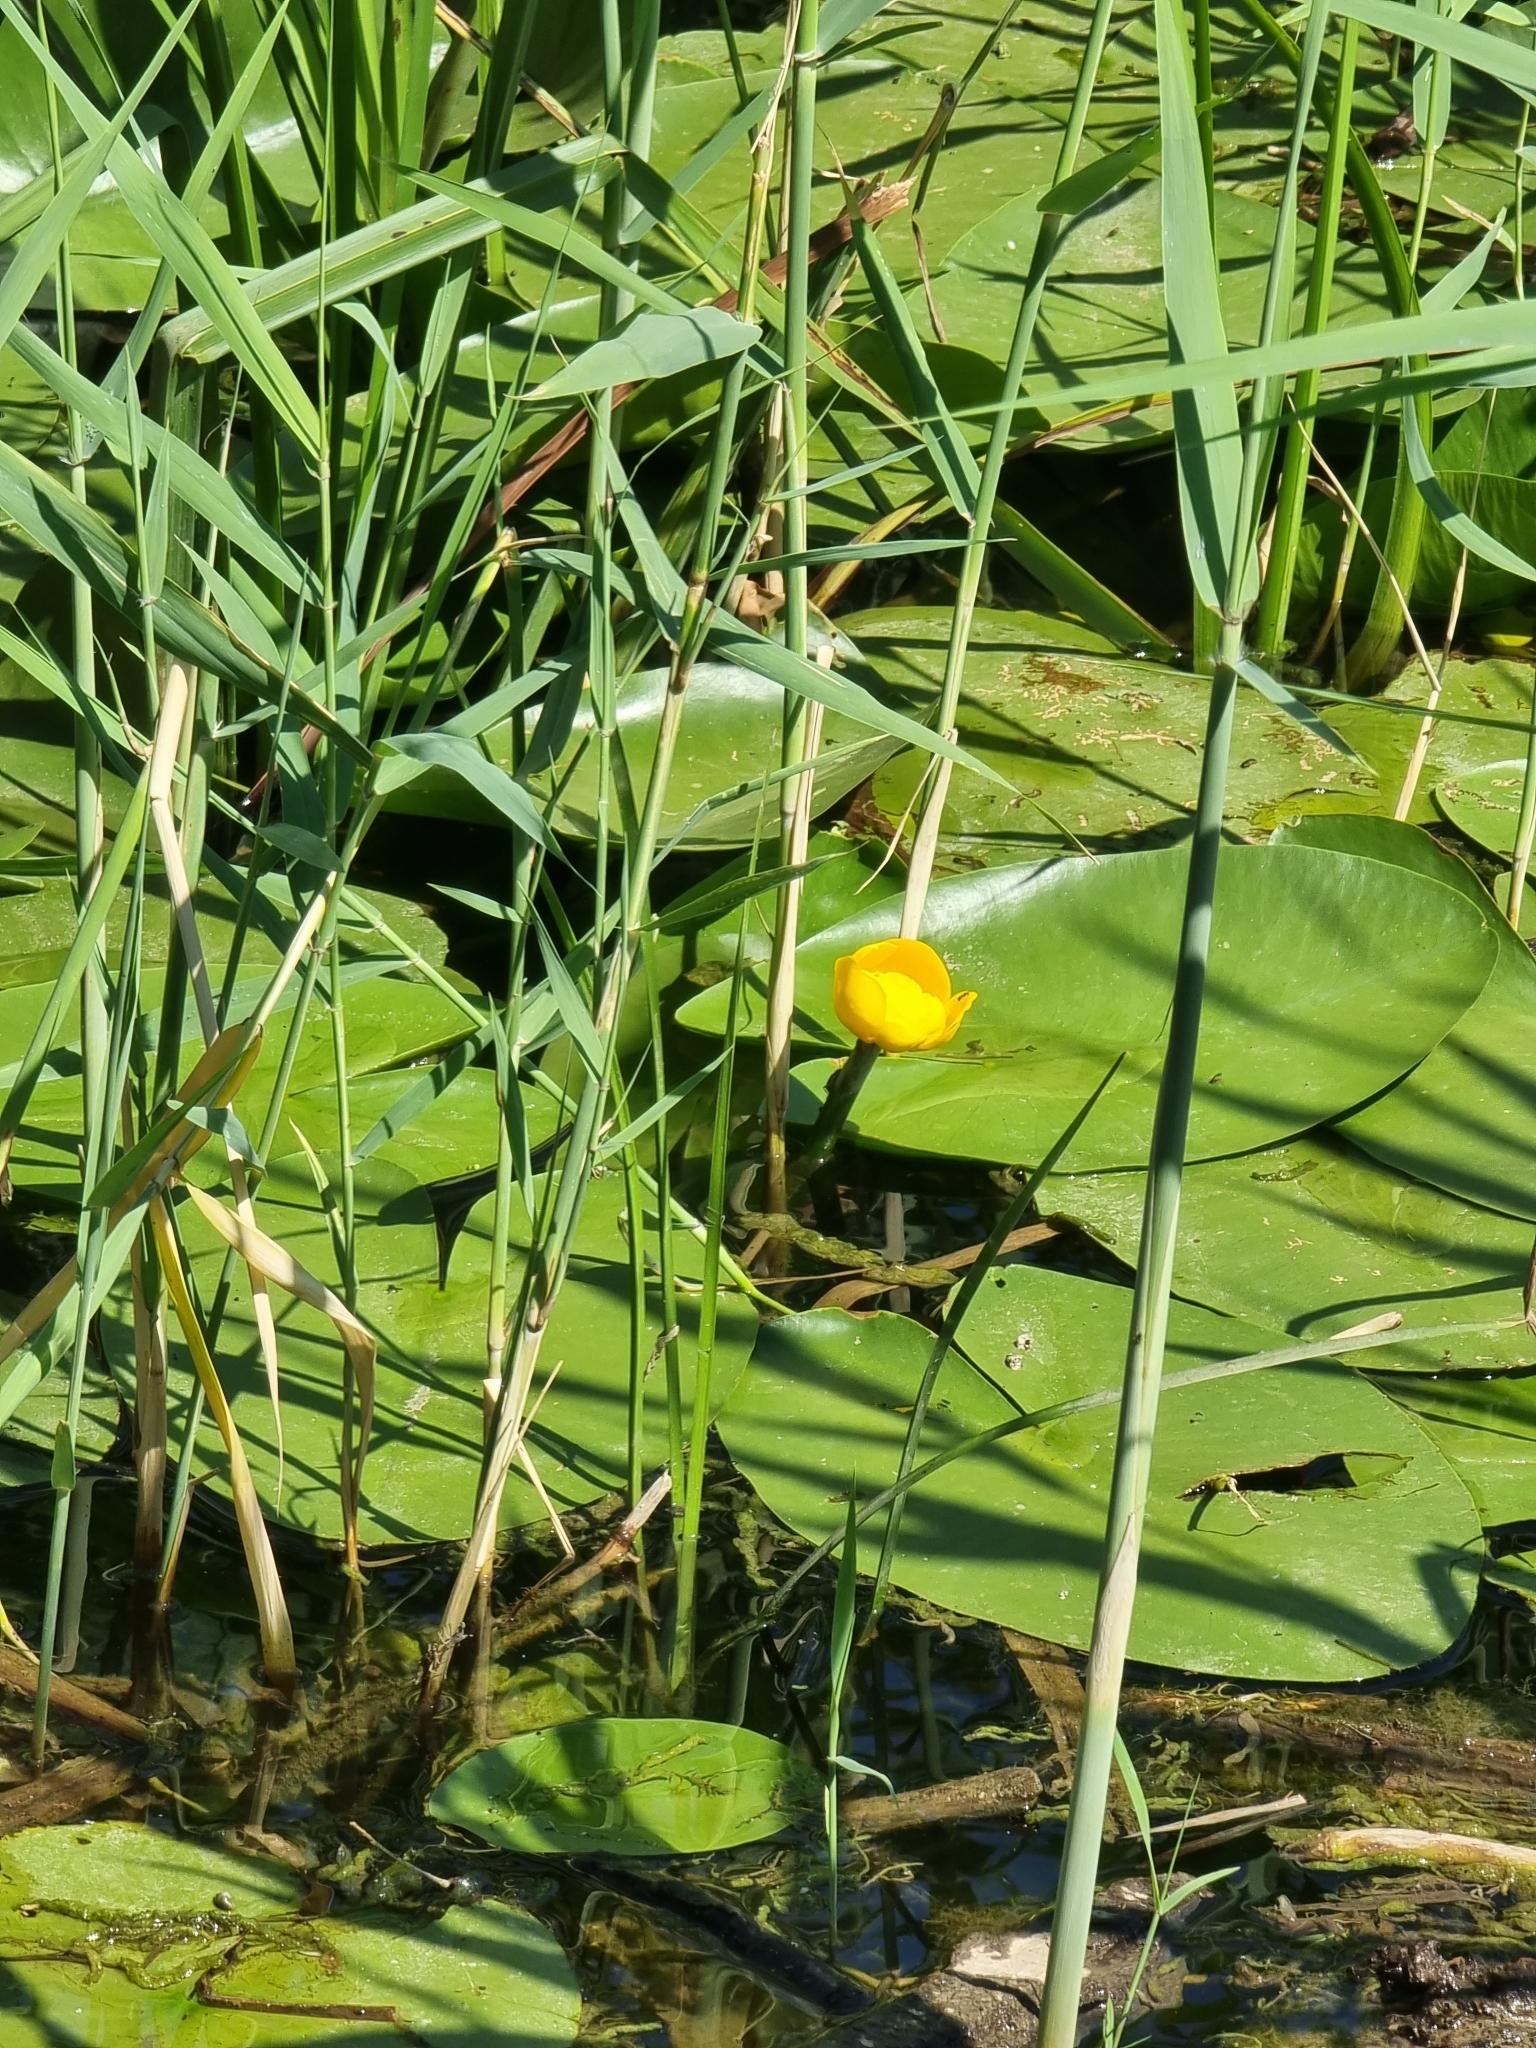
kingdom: Plantae
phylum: Tracheophyta
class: Magnoliopsida
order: Nymphaeales
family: Nymphaeaceae
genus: Nuphar
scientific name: Nuphar lutea
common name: Yellow water-lily
